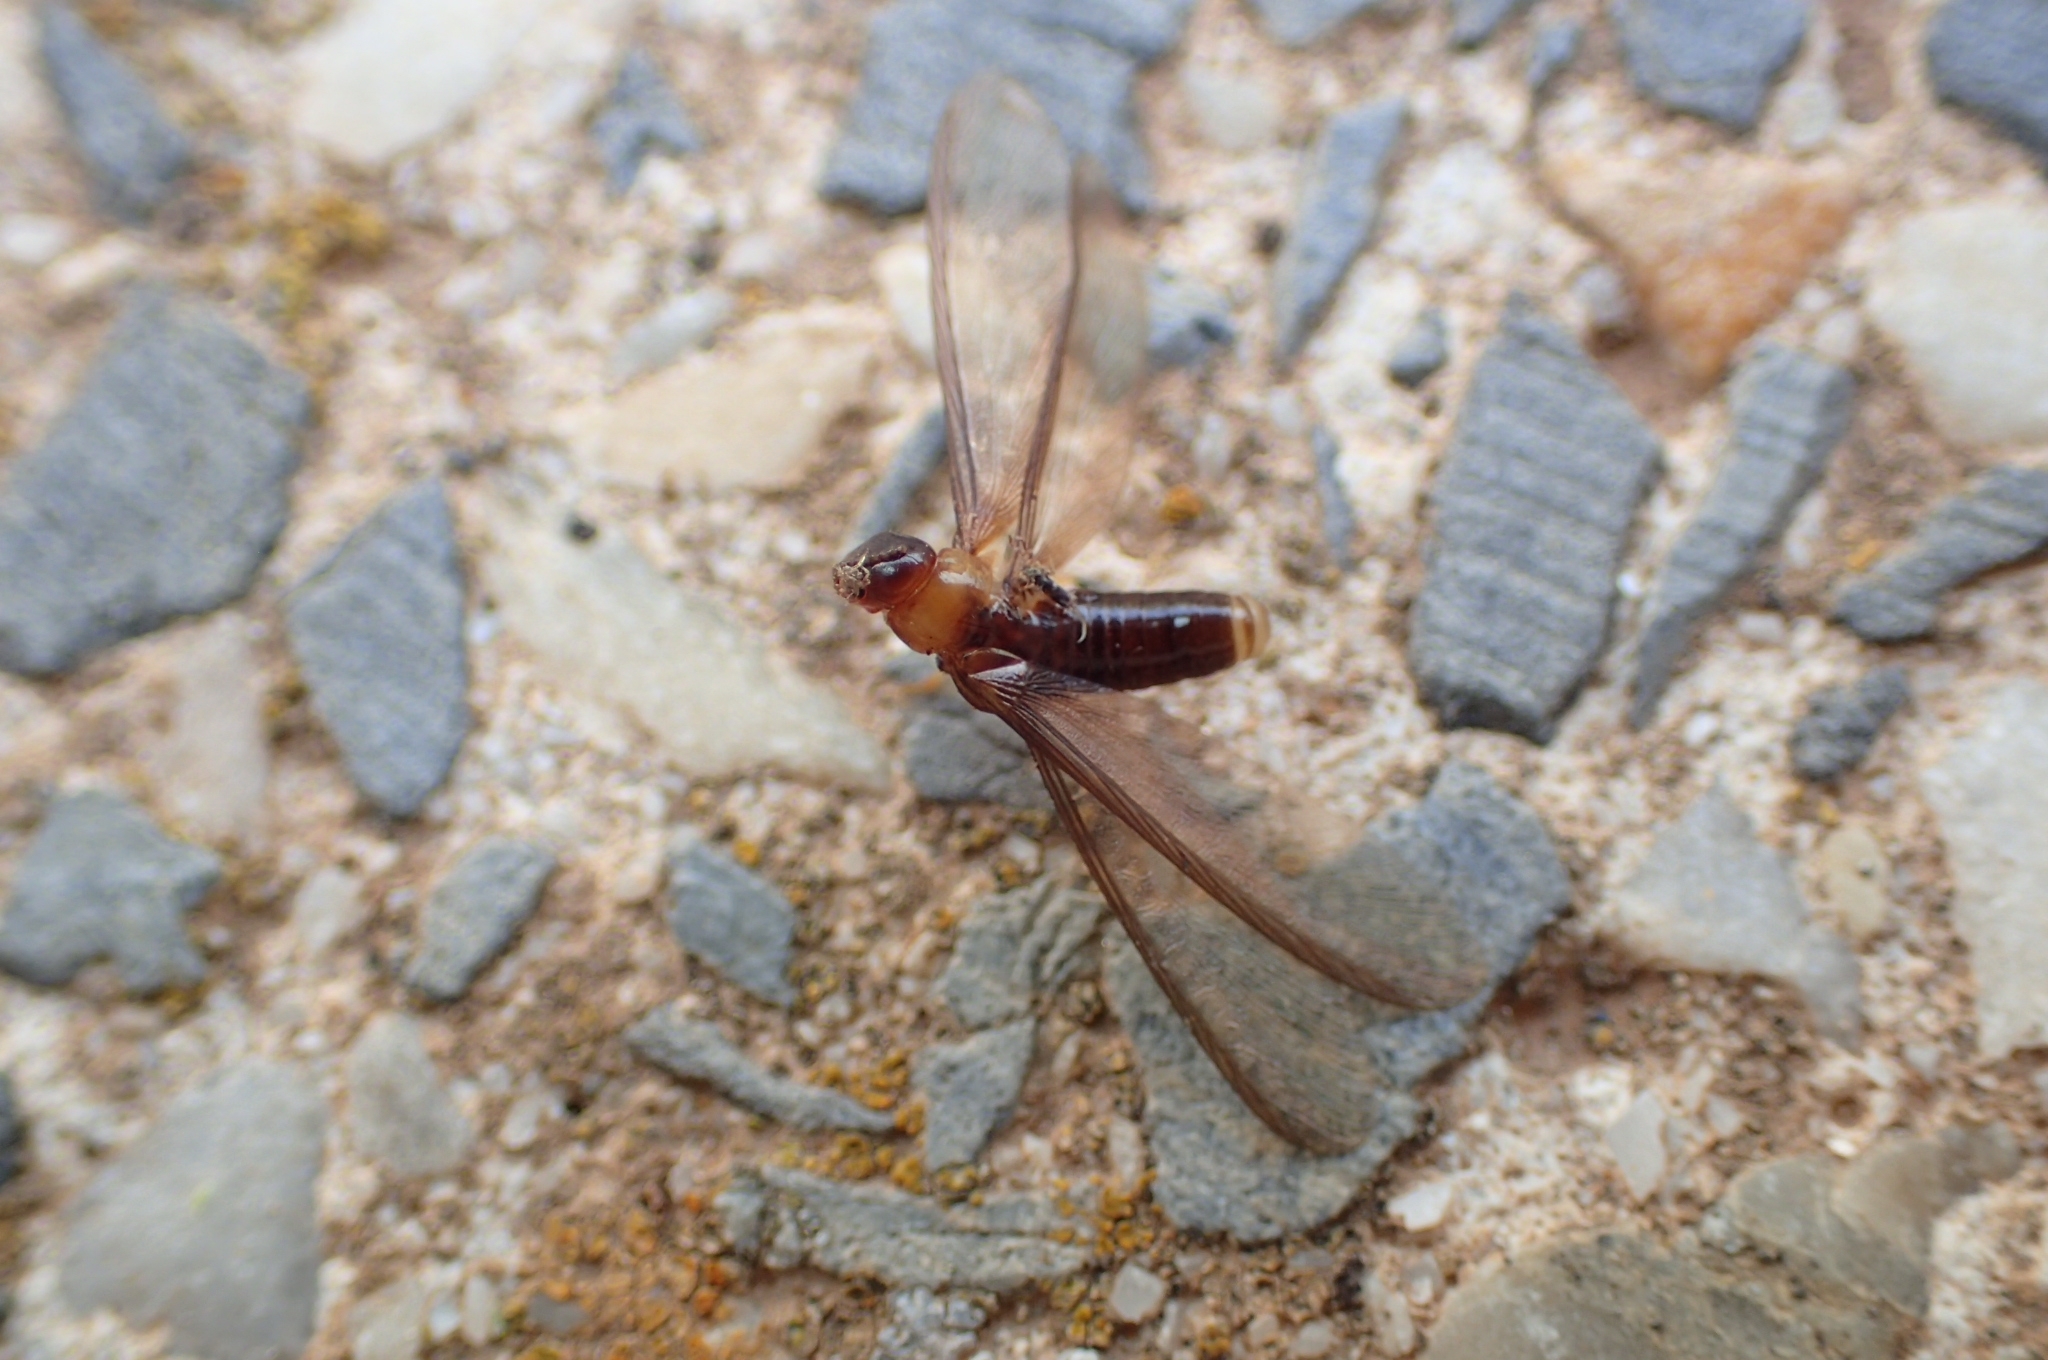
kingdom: Animalia
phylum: Arthropoda
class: Insecta
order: Blattodea
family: Kalotermitidae
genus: Kalotermes
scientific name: Kalotermes flavicollis
